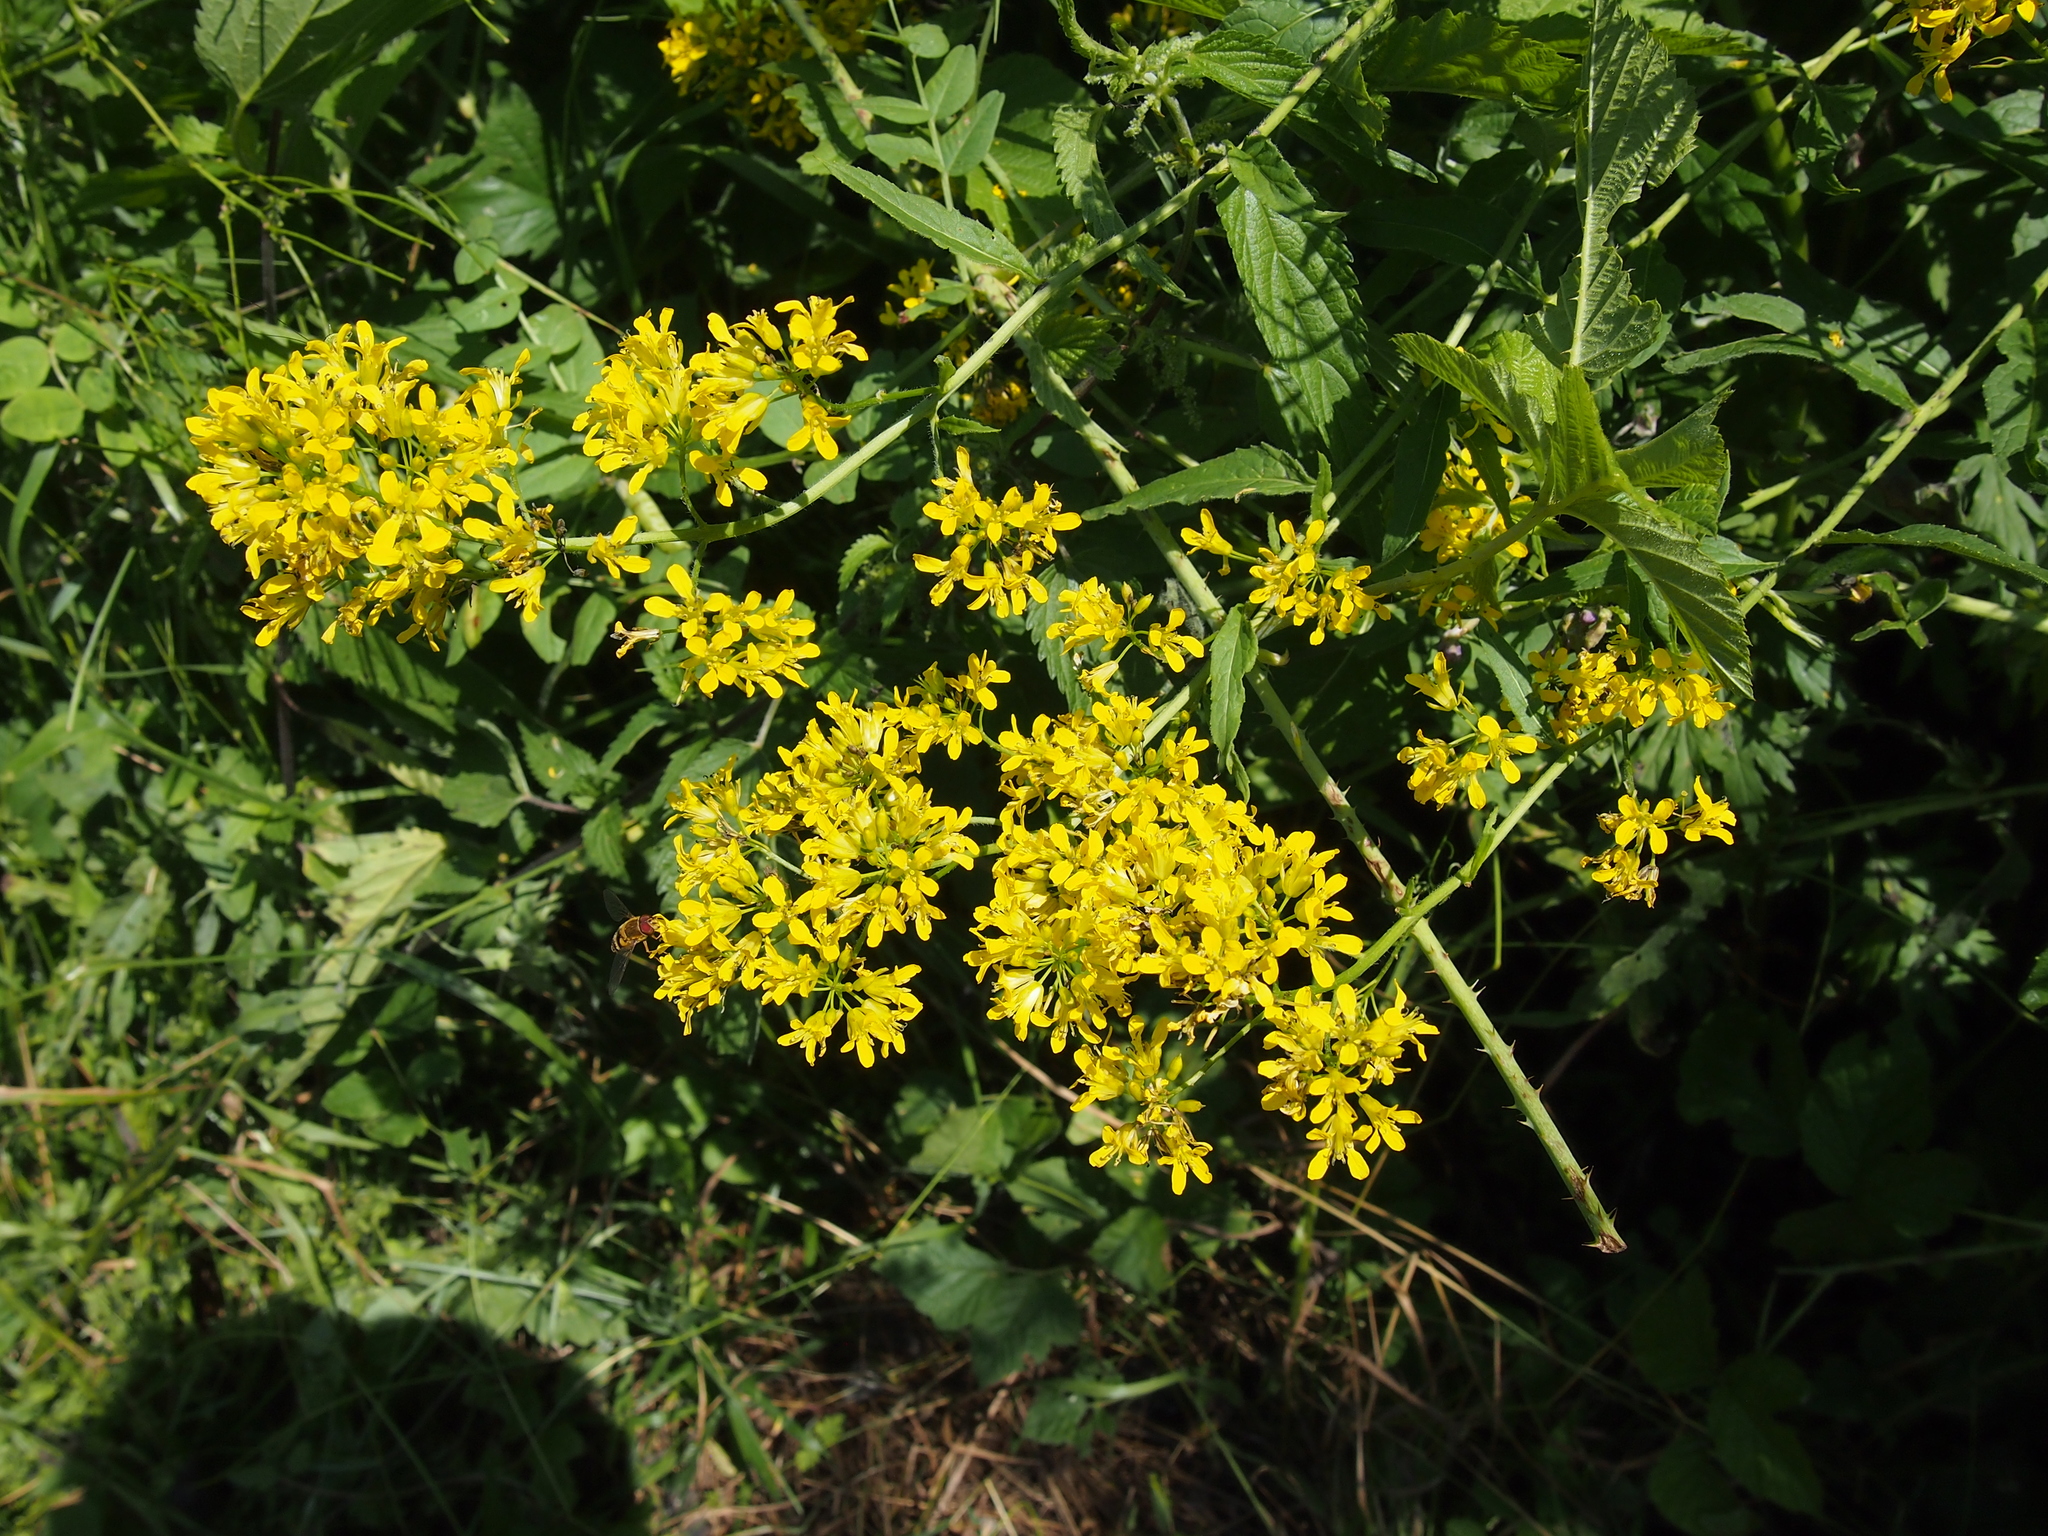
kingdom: Plantae
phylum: Tracheophyta
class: Magnoliopsida
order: Brassicales
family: Brassicaceae
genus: Sisymbrium
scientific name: Sisymbrium strictissimum
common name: Perennial rocket
